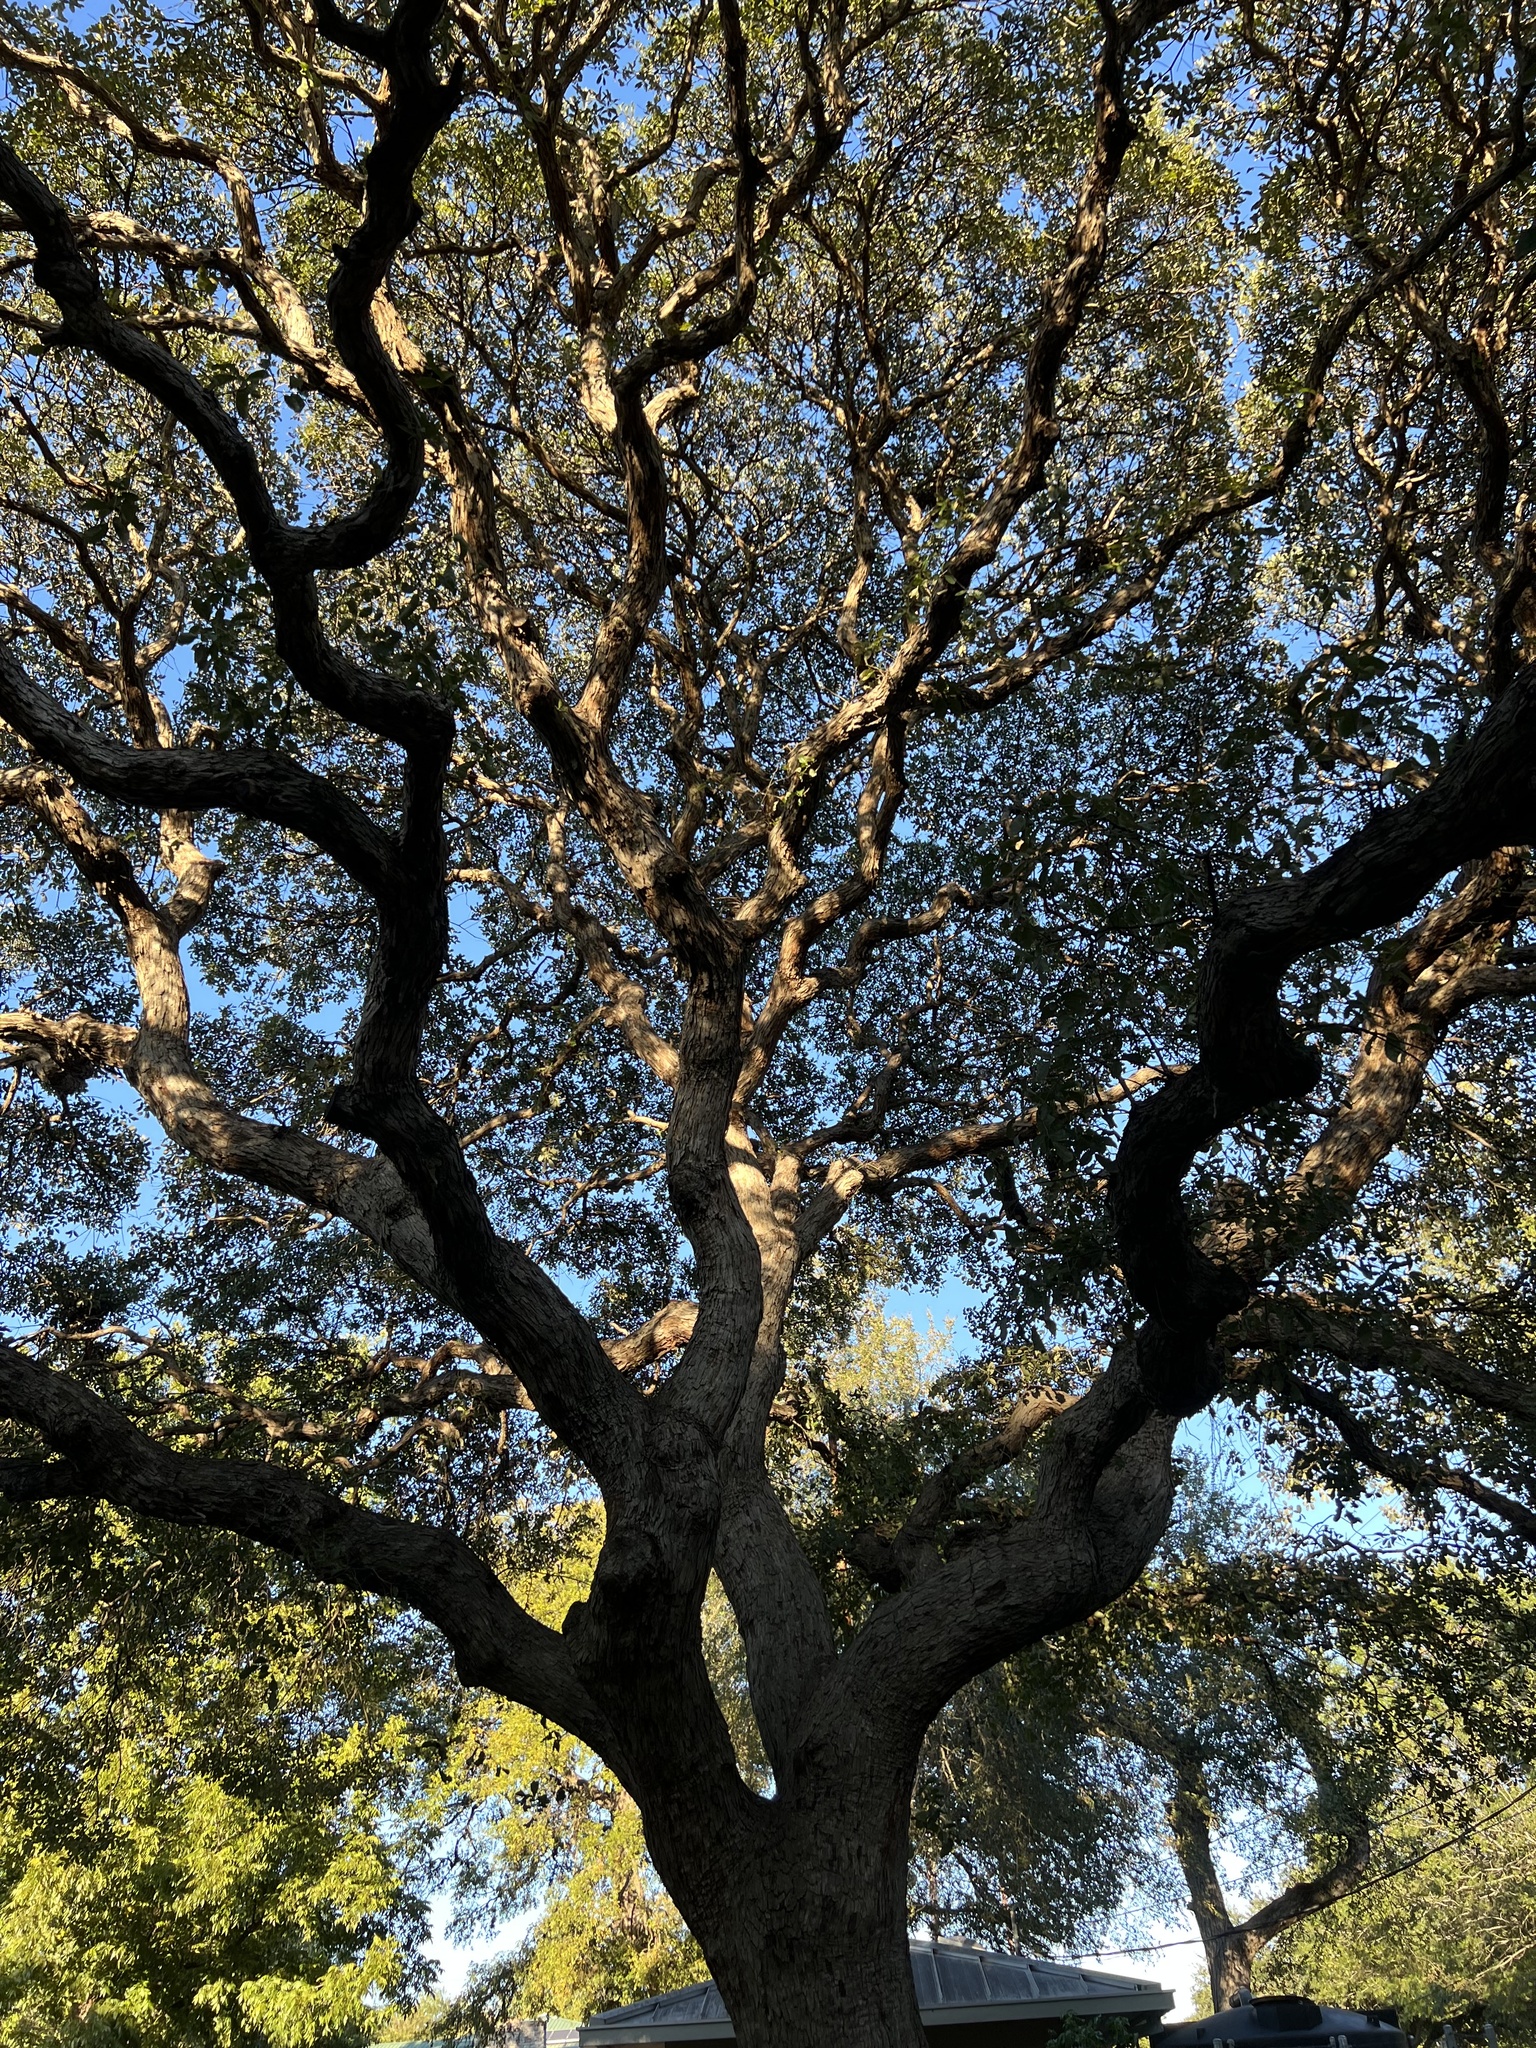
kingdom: Plantae
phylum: Tracheophyta
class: Magnoliopsida
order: Fagales
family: Fagaceae
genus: Quercus
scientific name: Quercus sinuata
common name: Durand oak
